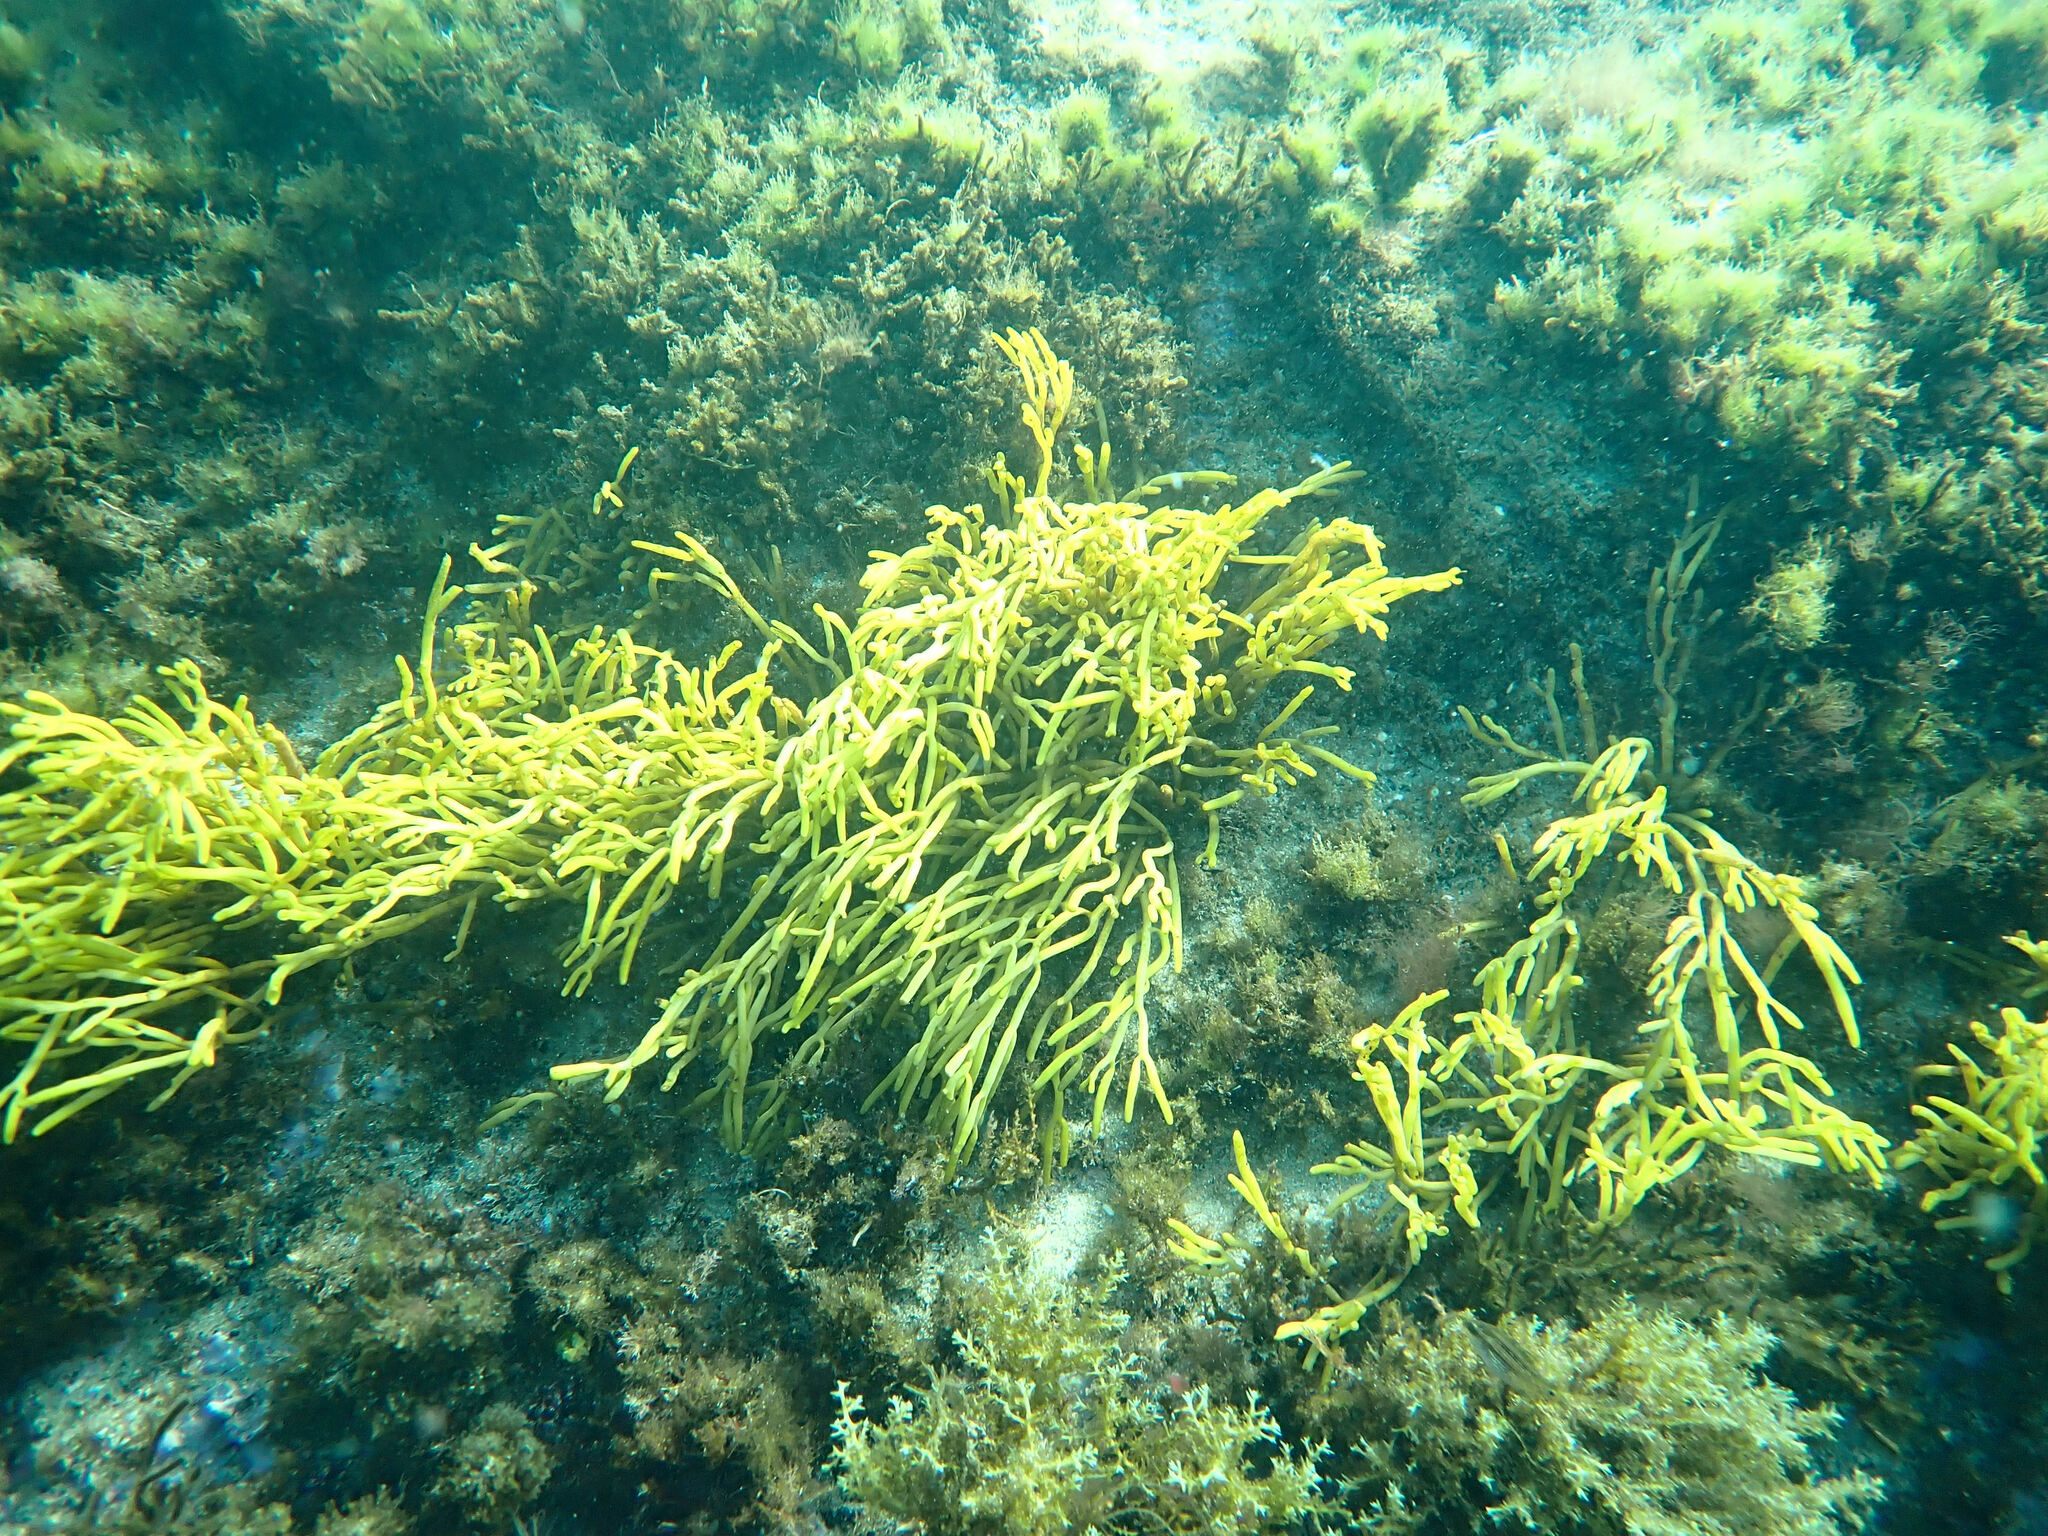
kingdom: Chromista
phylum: Ochrophyta
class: Phaeophyceae
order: Fucales
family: Sargassaceae
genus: Bifurcaria
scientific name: Bifurcaria bifurcata
